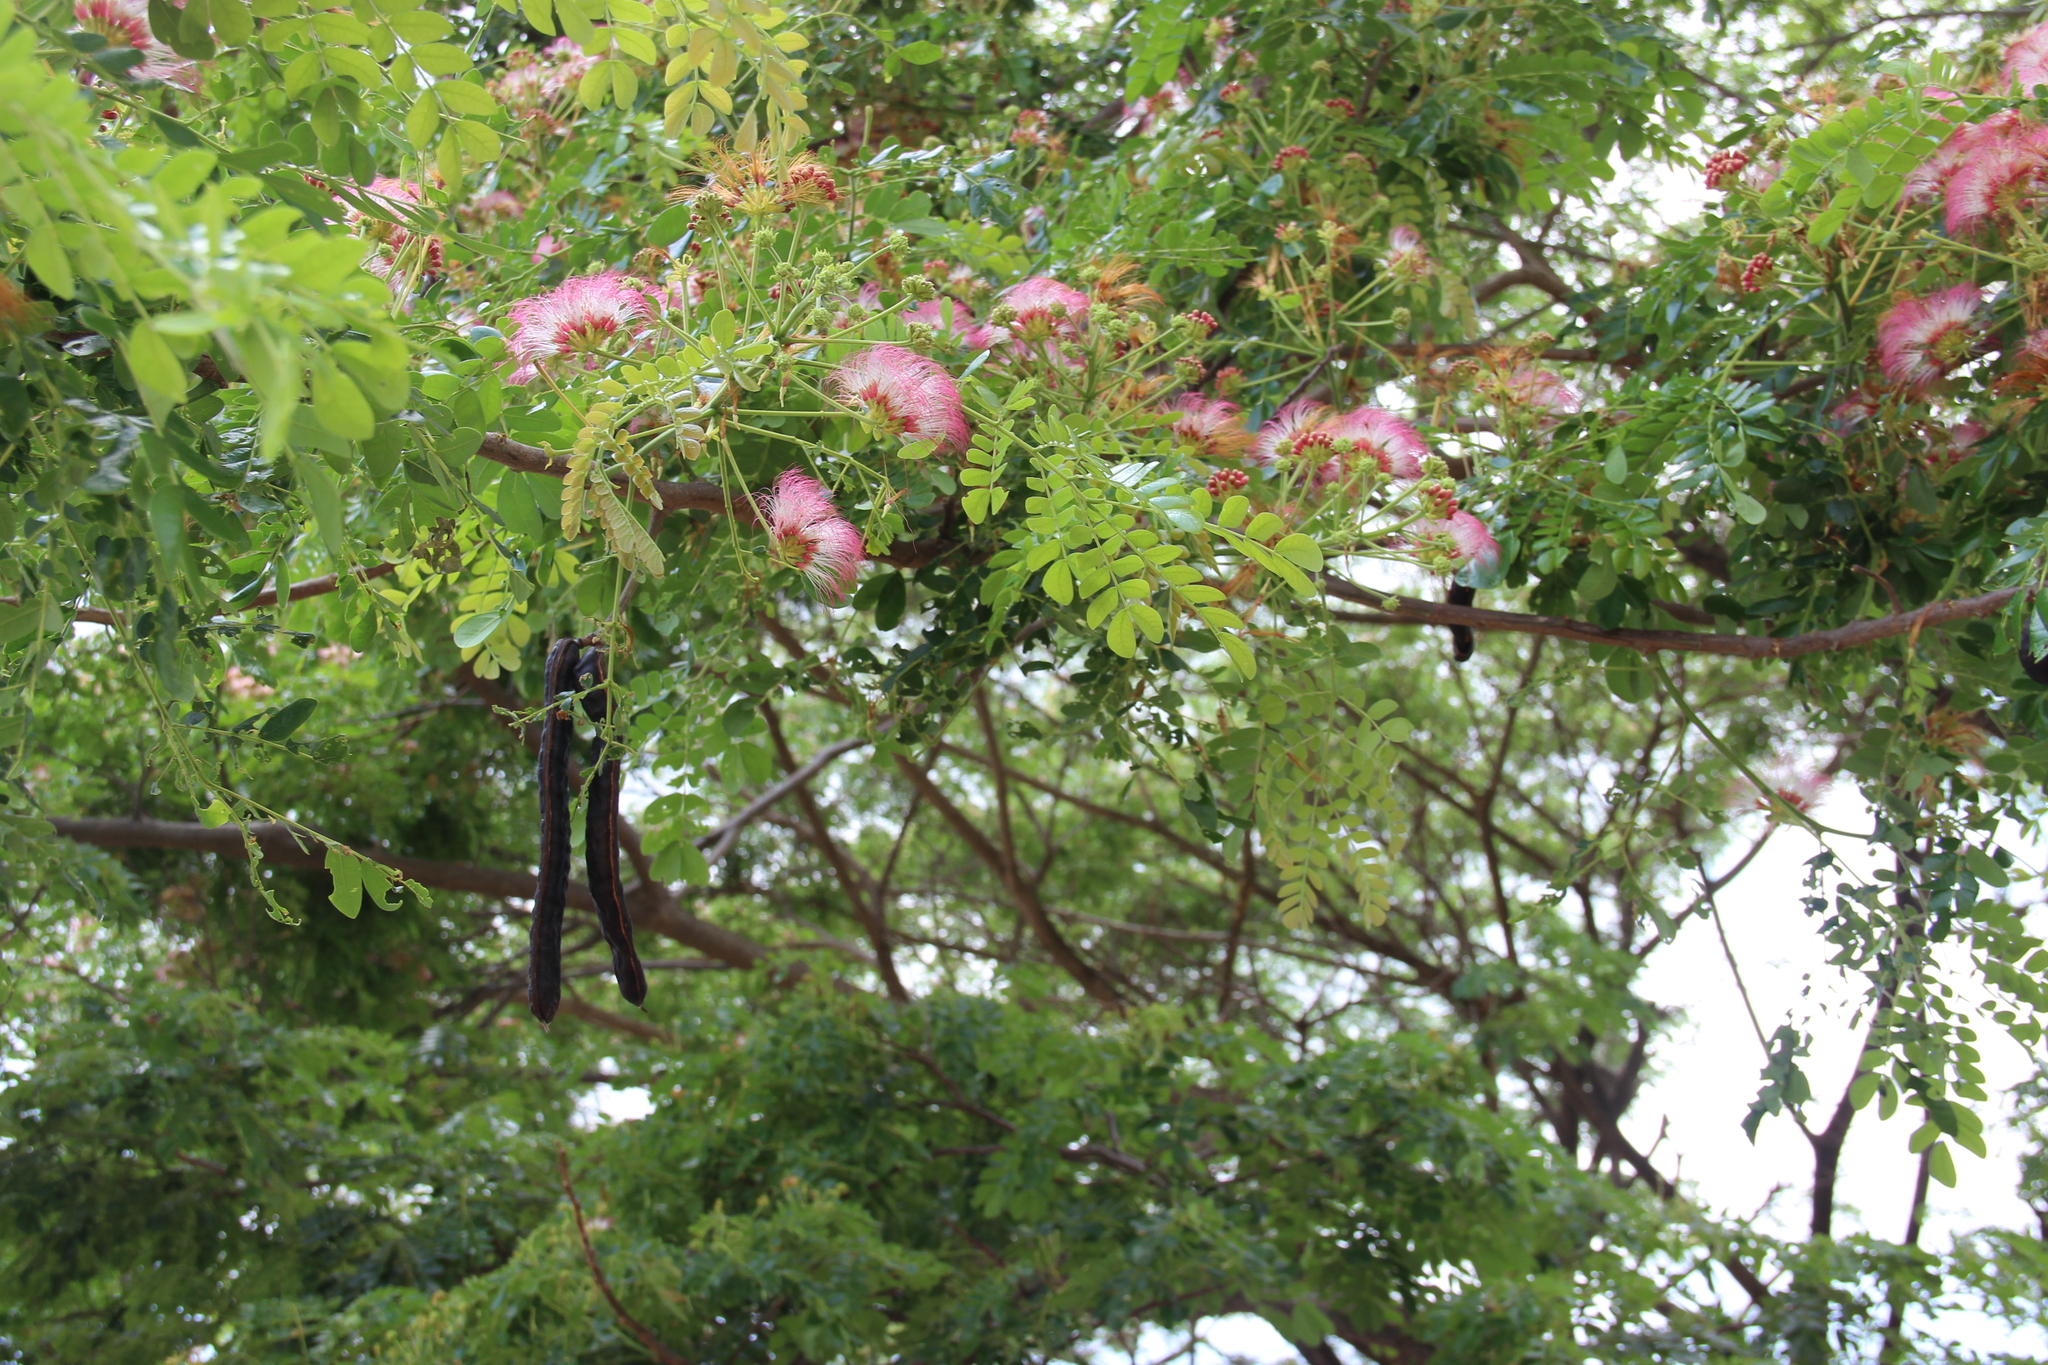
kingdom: Plantae
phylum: Tracheophyta
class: Magnoliopsida
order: Fabales
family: Fabaceae
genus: Samanea
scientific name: Samanea saman
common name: Raintree
